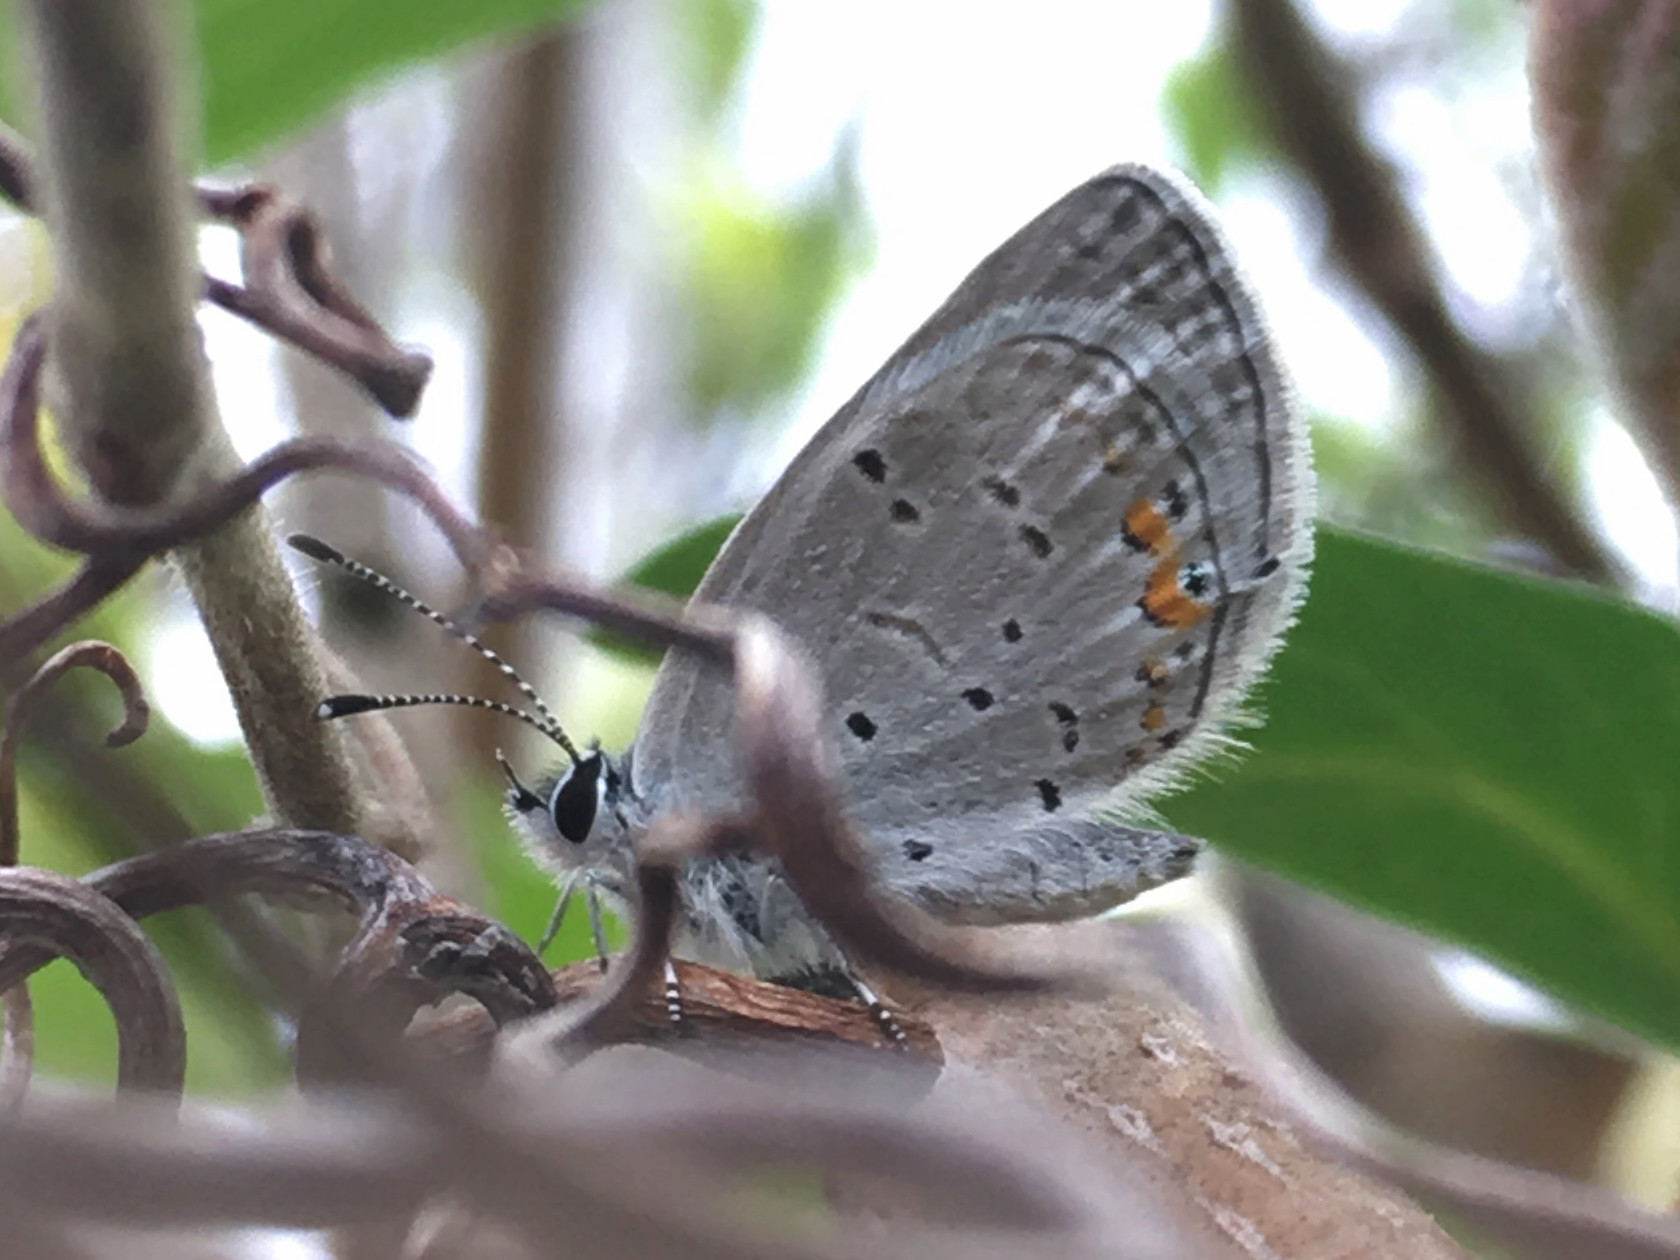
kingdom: Animalia
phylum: Arthropoda
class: Insecta
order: Lepidoptera
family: Lycaenidae
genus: Elkalyce
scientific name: Elkalyce comyntas
